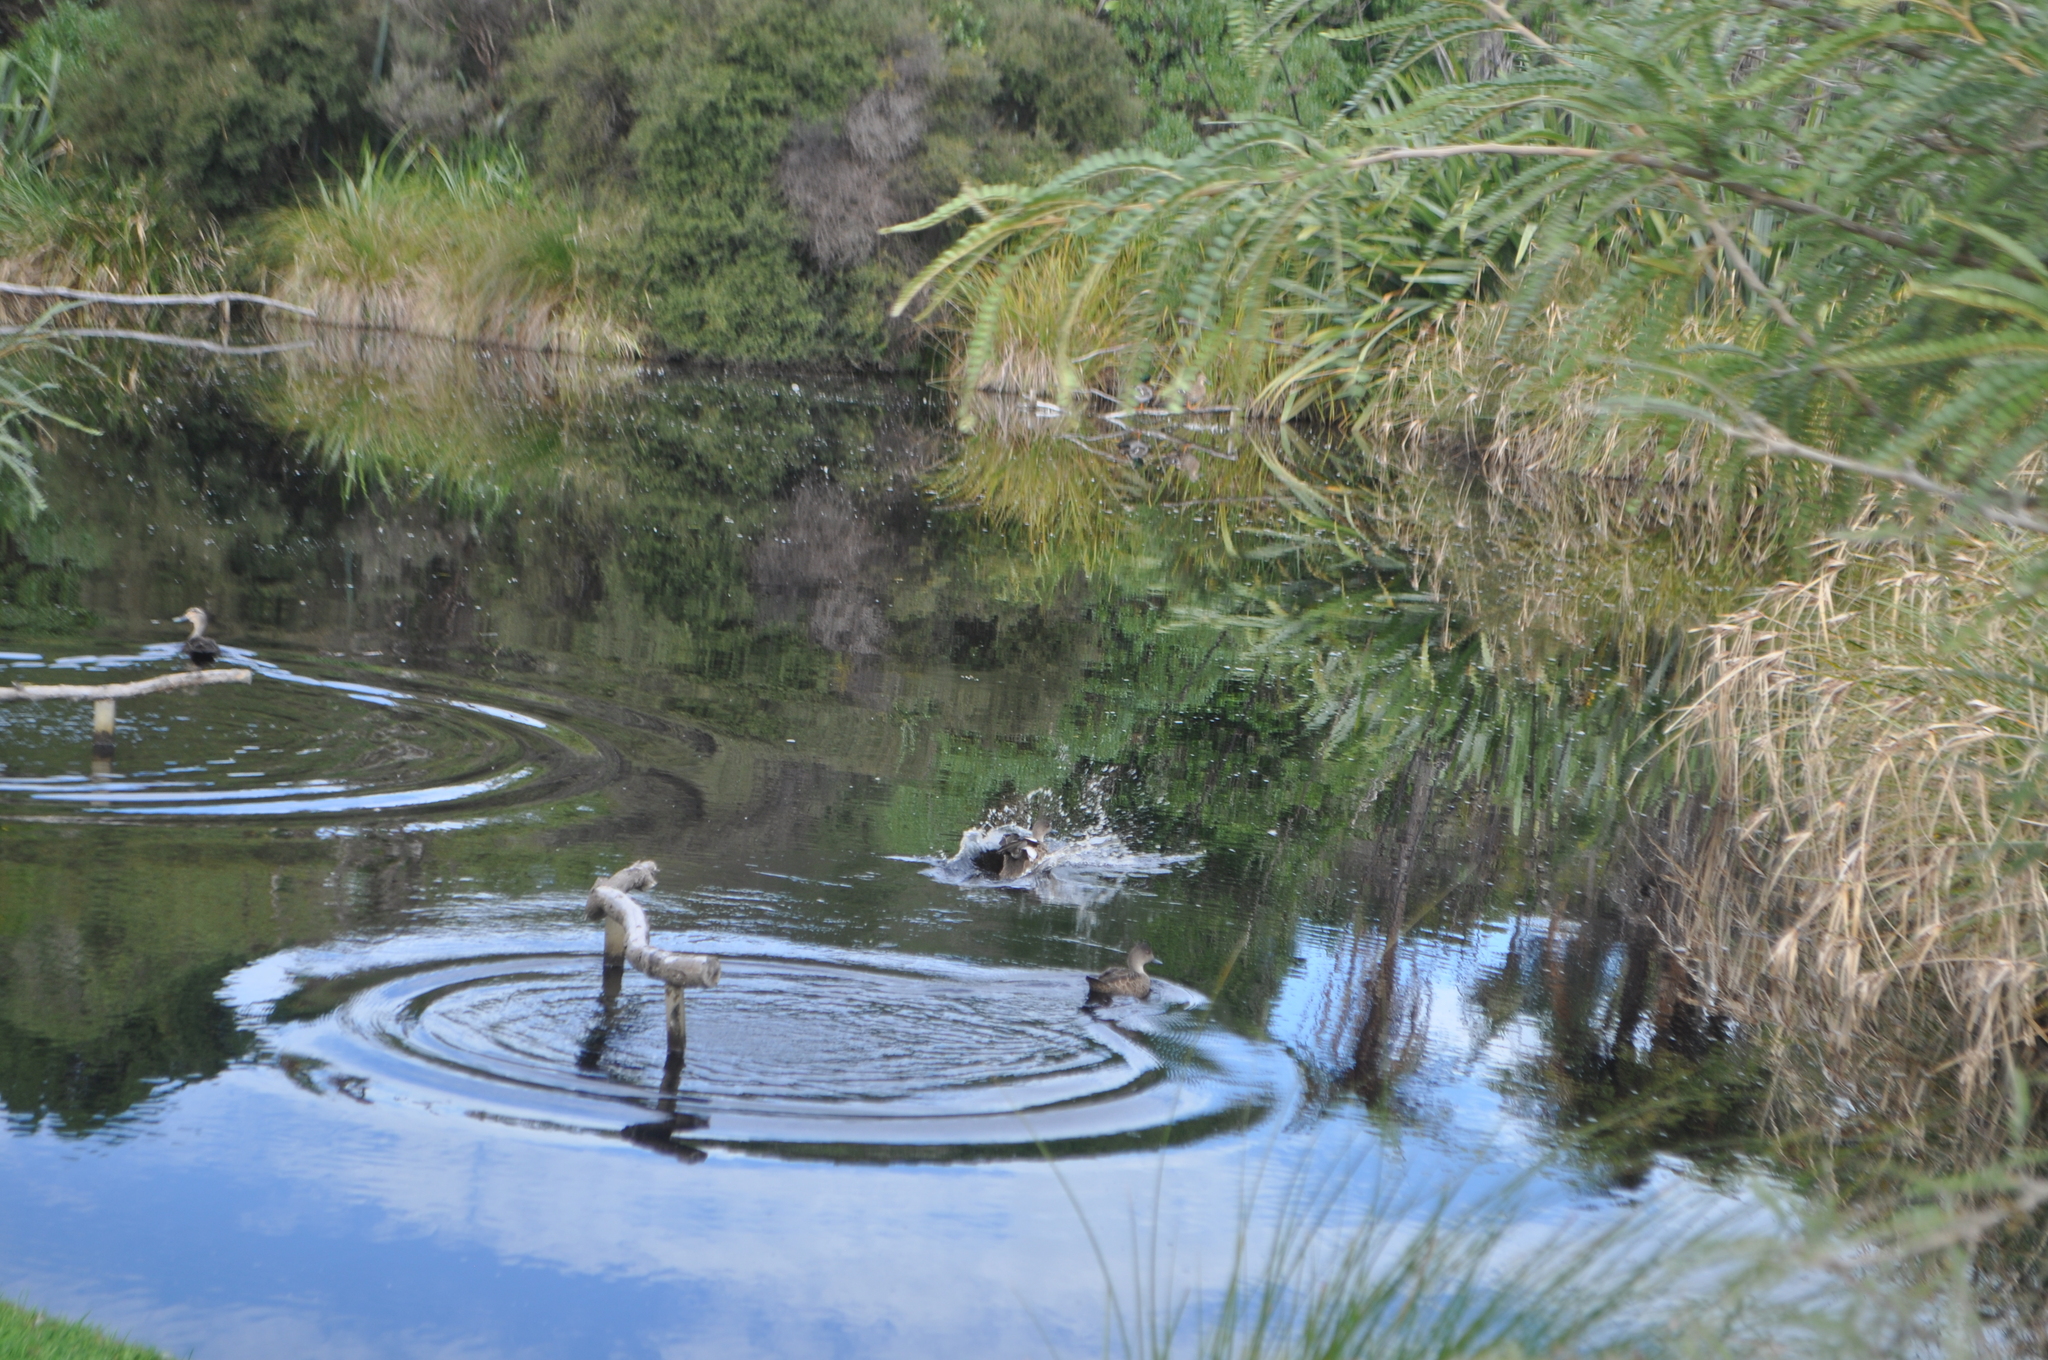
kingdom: Animalia
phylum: Chordata
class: Aves
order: Anseriformes
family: Anatidae
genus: Anas
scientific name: Anas platyrhynchos
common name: Mallard
